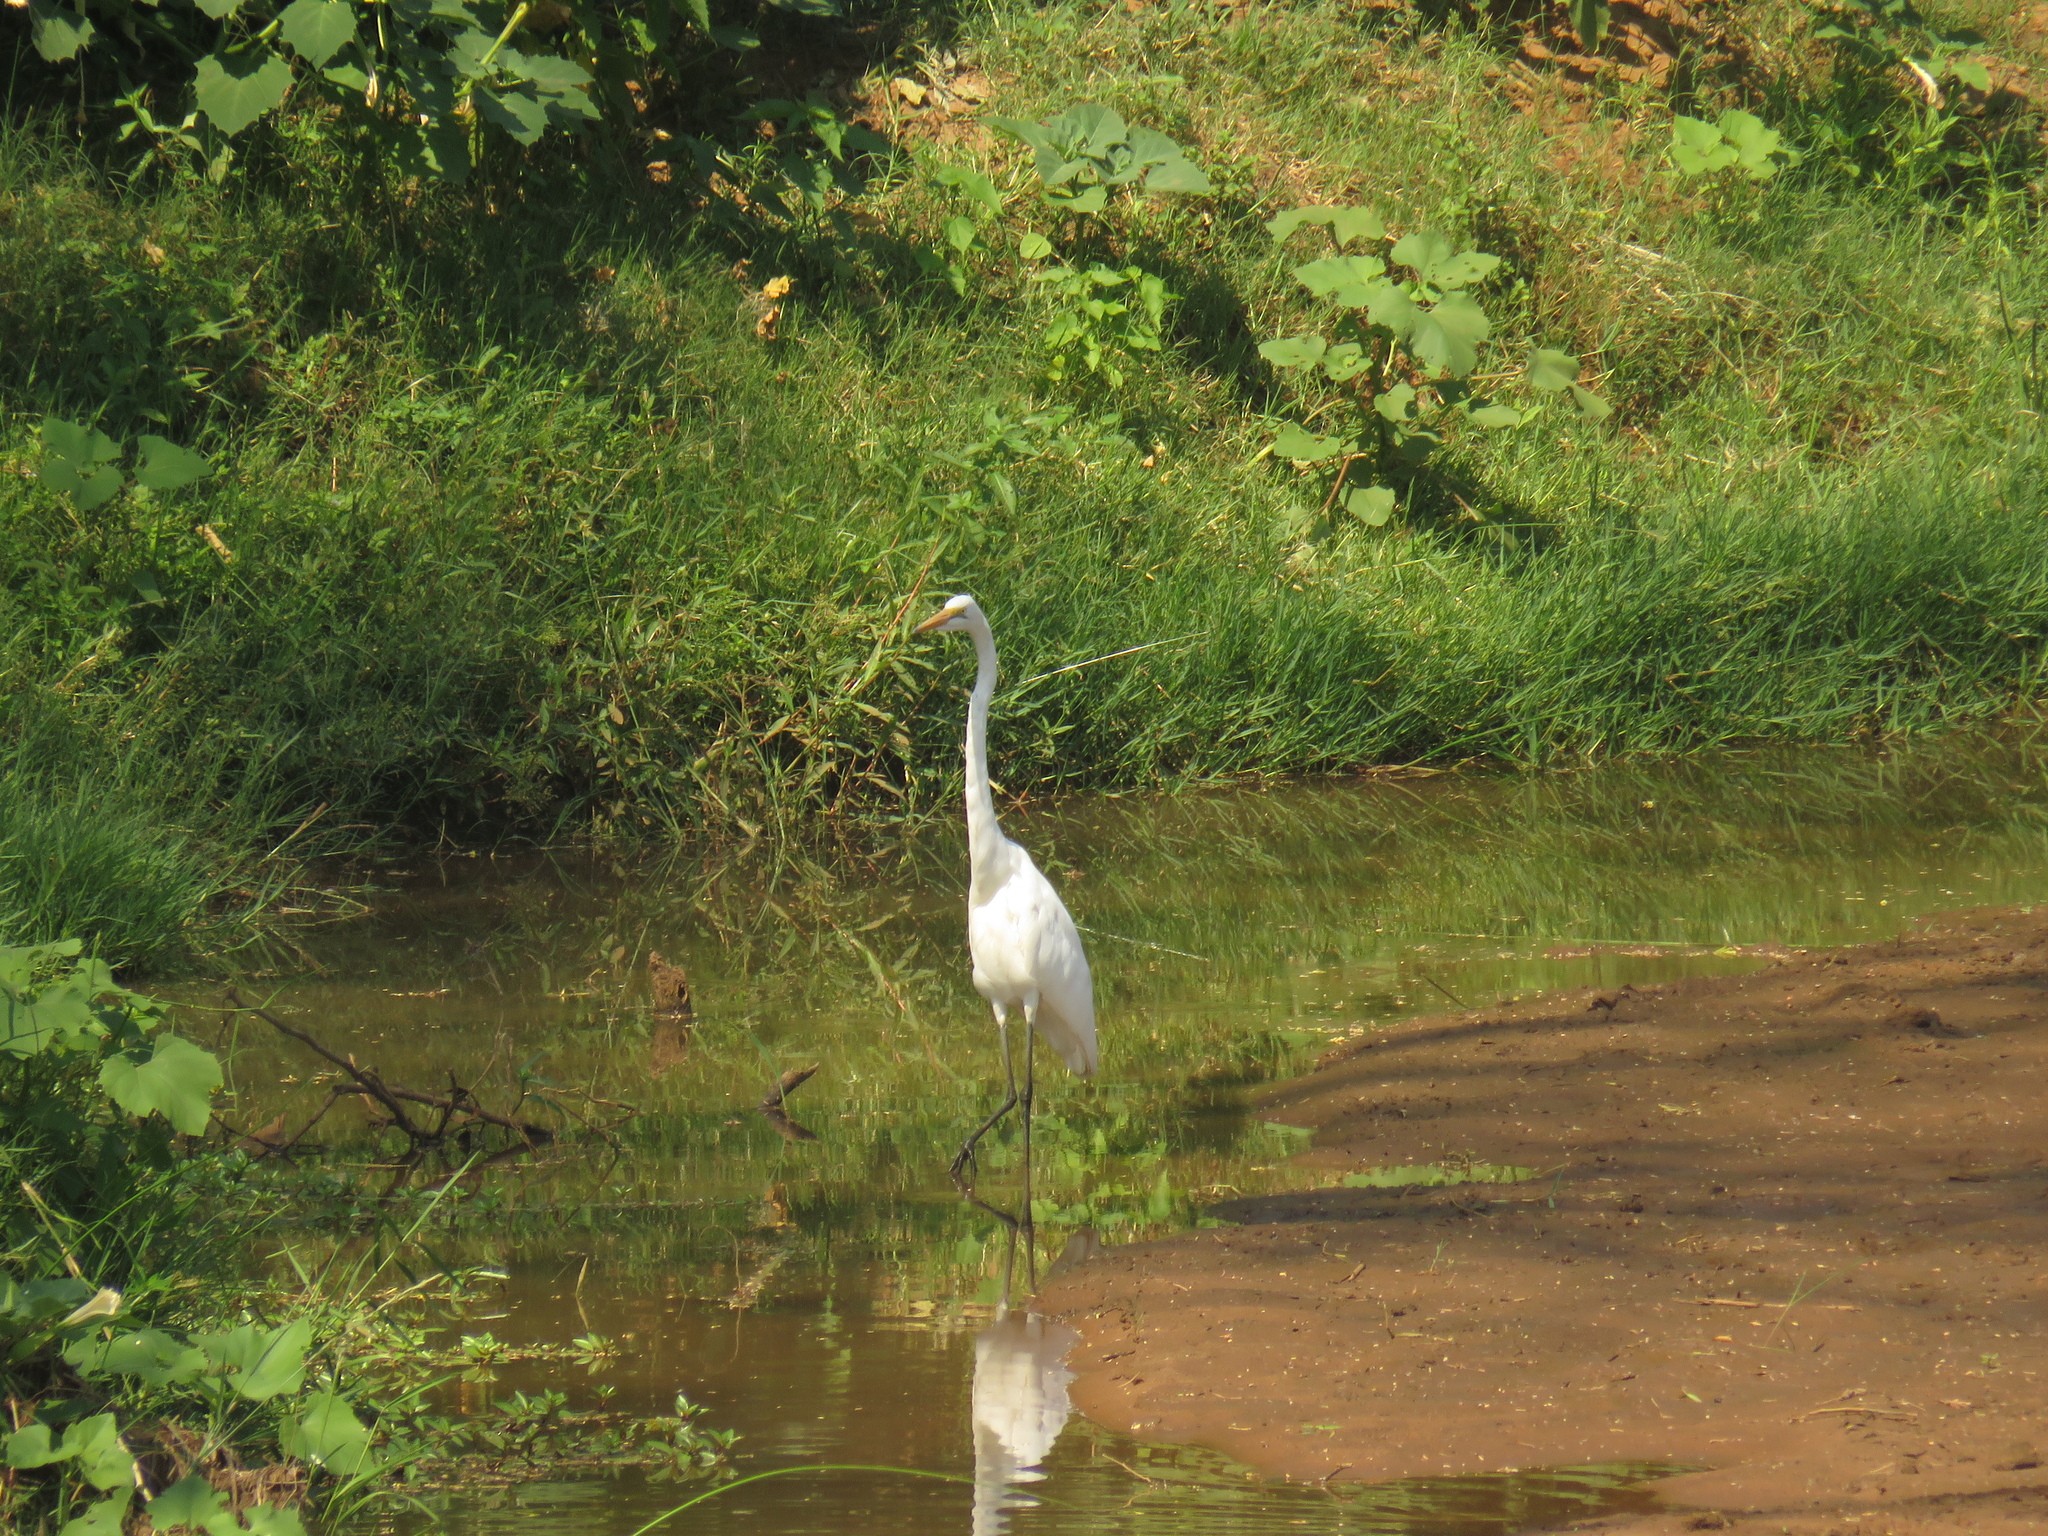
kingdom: Animalia
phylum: Chordata
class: Aves
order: Pelecaniformes
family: Ardeidae
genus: Ardea
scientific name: Ardea alba
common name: Great egret
